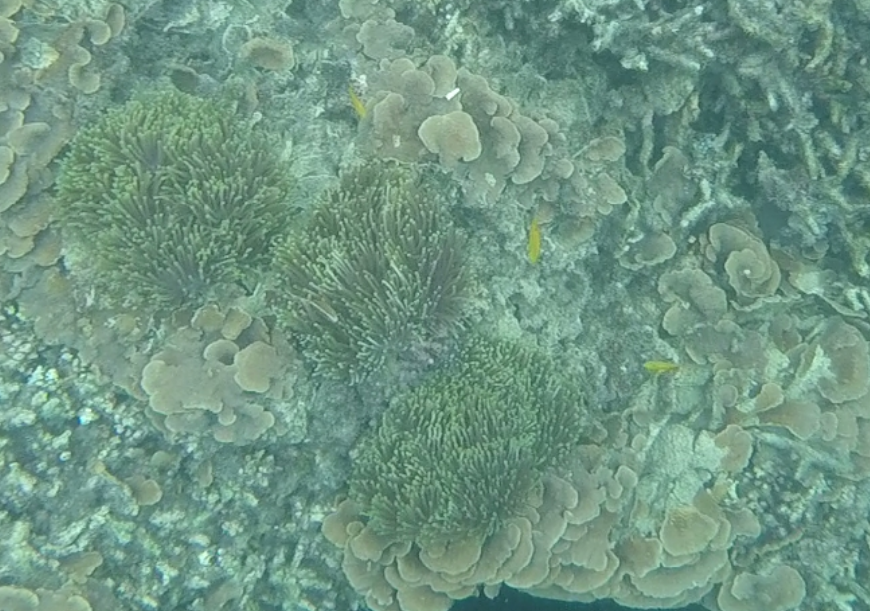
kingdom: Animalia
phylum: Chordata
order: Perciformes
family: Pomacentridae
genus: Pomacentrus
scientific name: Pomacentrus sulfureus
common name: Sulfur damsel
